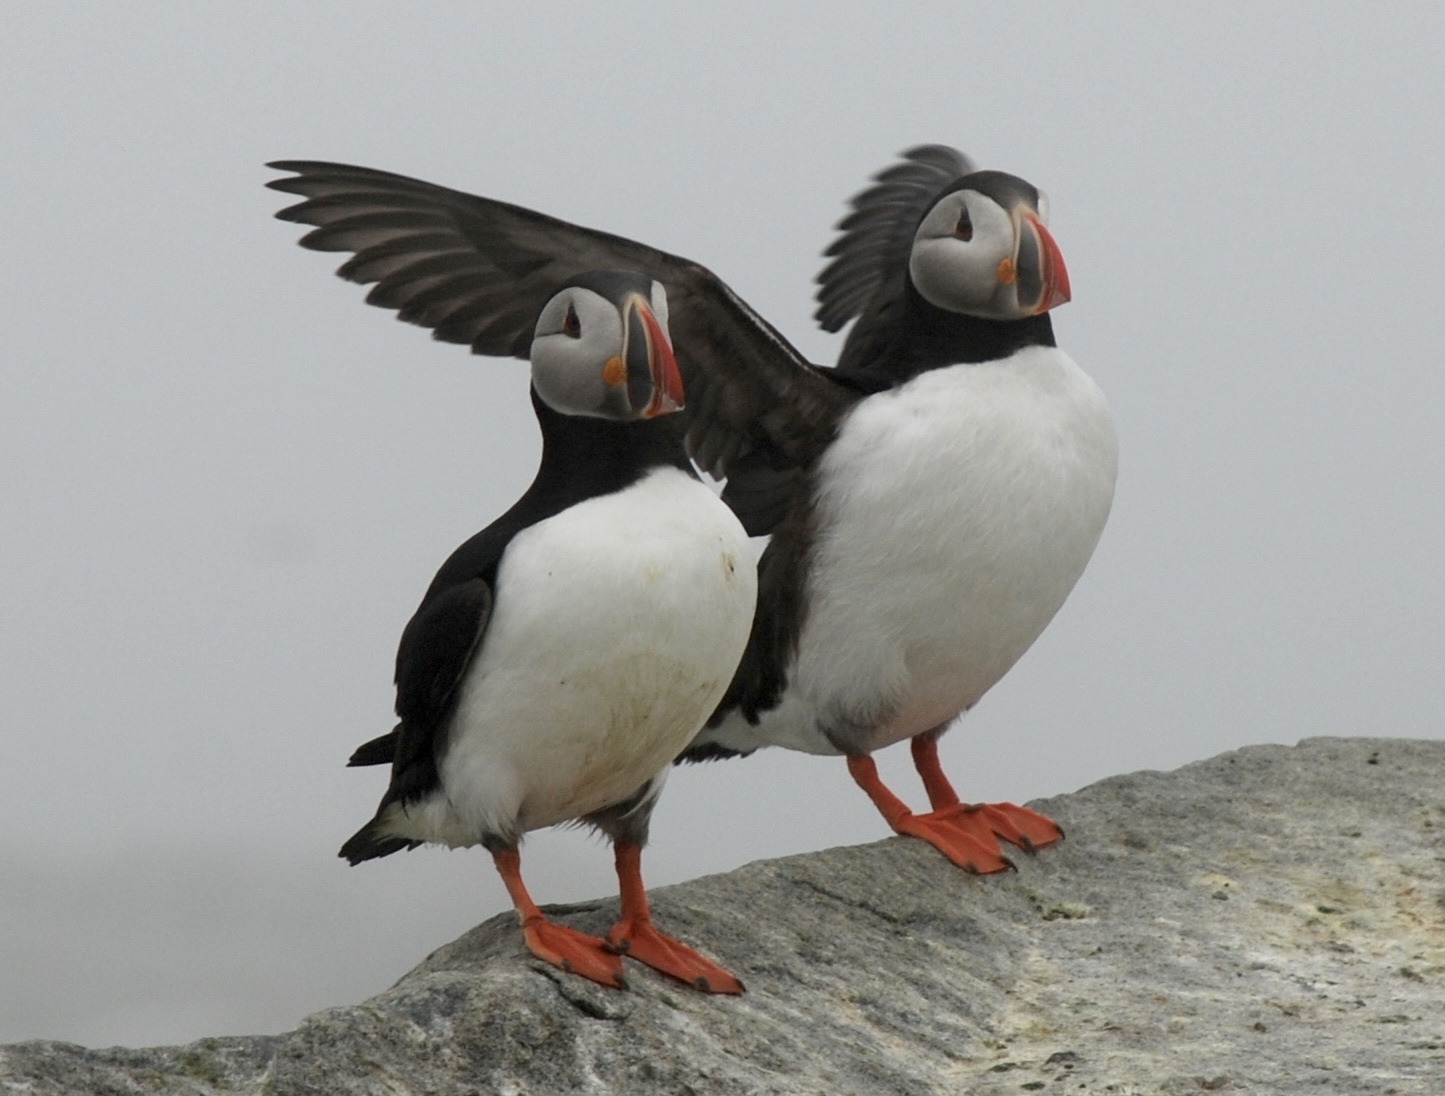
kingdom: Animalia
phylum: Chordata
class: Aves
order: Charadriiformes
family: Alcidae
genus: Fratercula
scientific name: Fratercula arctica
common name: Atlantic puffin
